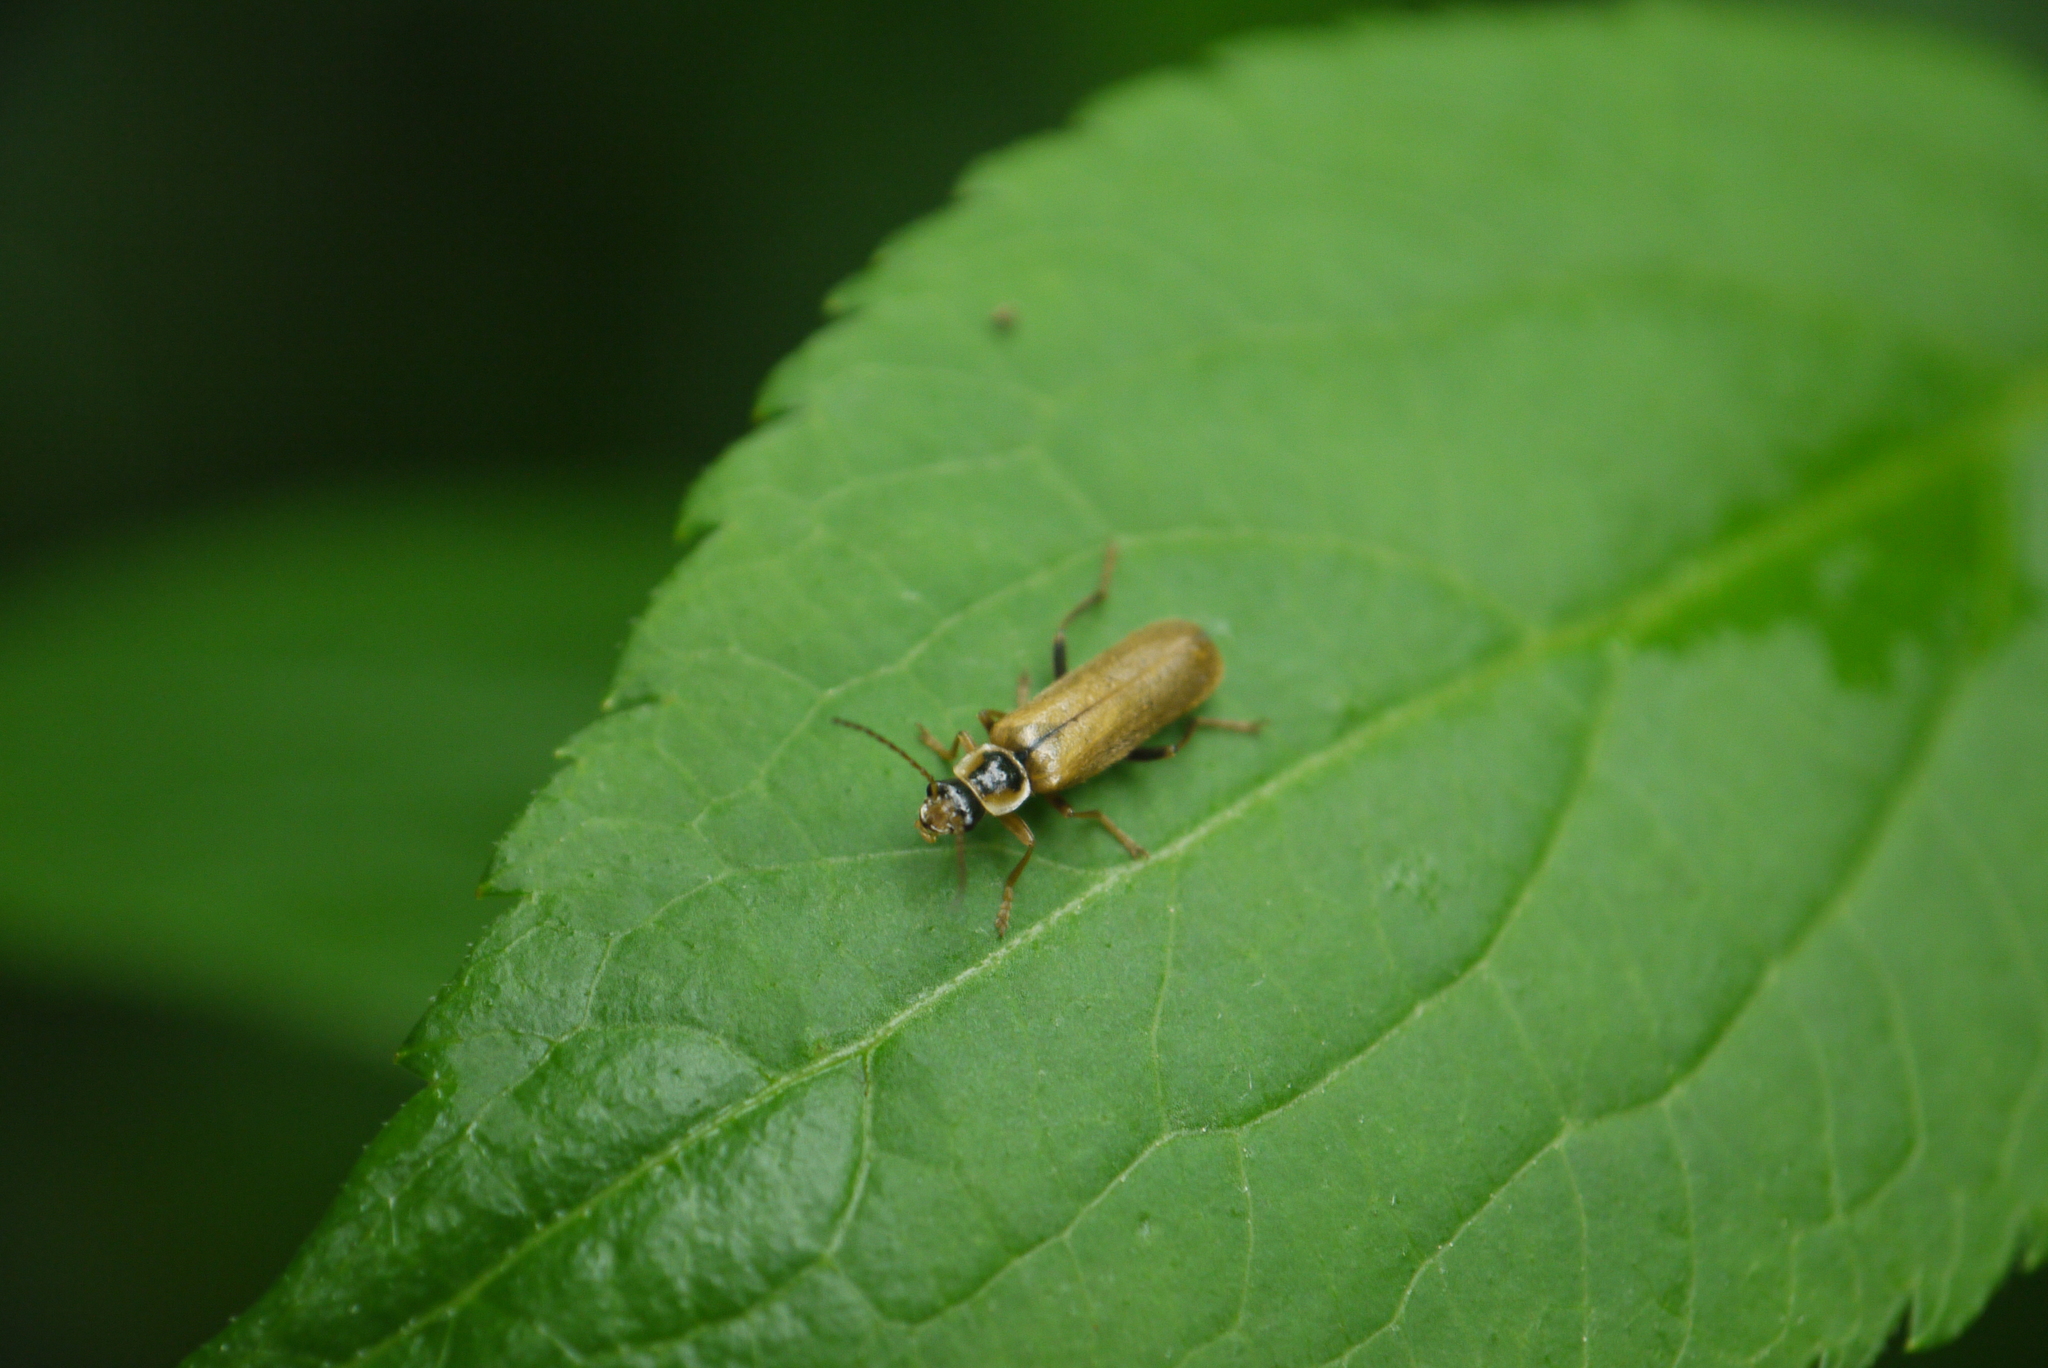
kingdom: Animalia
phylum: Arthropoda
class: Insecta
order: Coleoptera
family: Cantharidae
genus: Cantharis
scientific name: Cantharis decipiens
